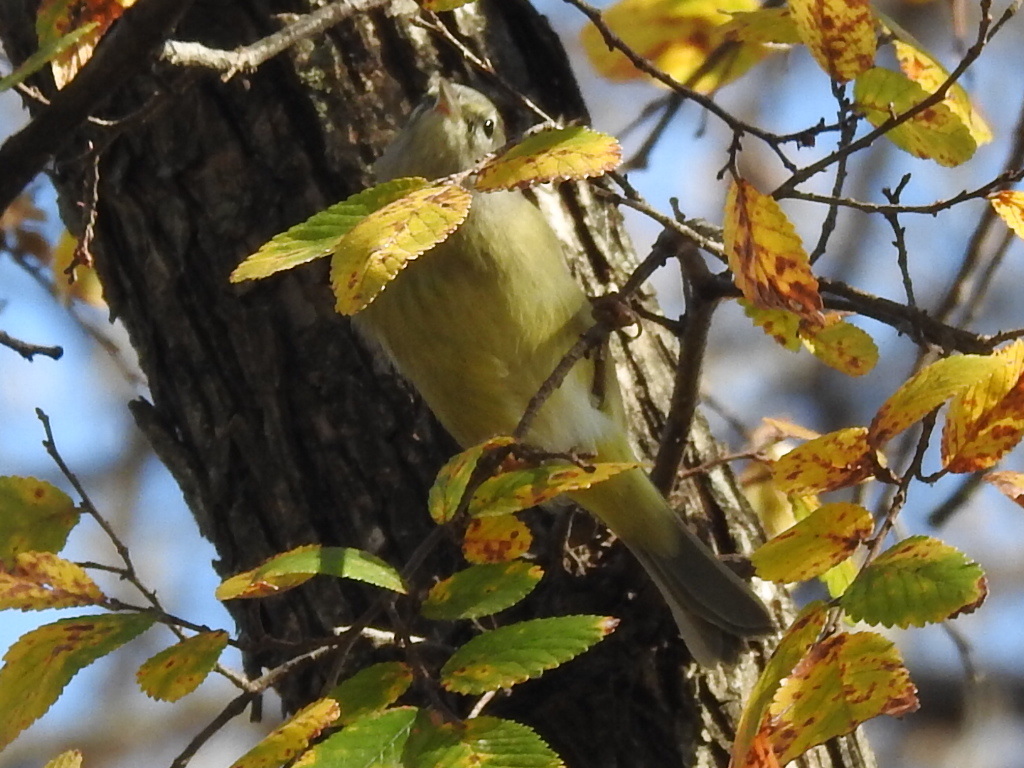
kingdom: Animalia
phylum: Chordata
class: Aves
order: Passeriformes
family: Parulidae
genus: Leiothlypis
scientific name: Leiothlypis celata
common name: Orange-crowned warbler
